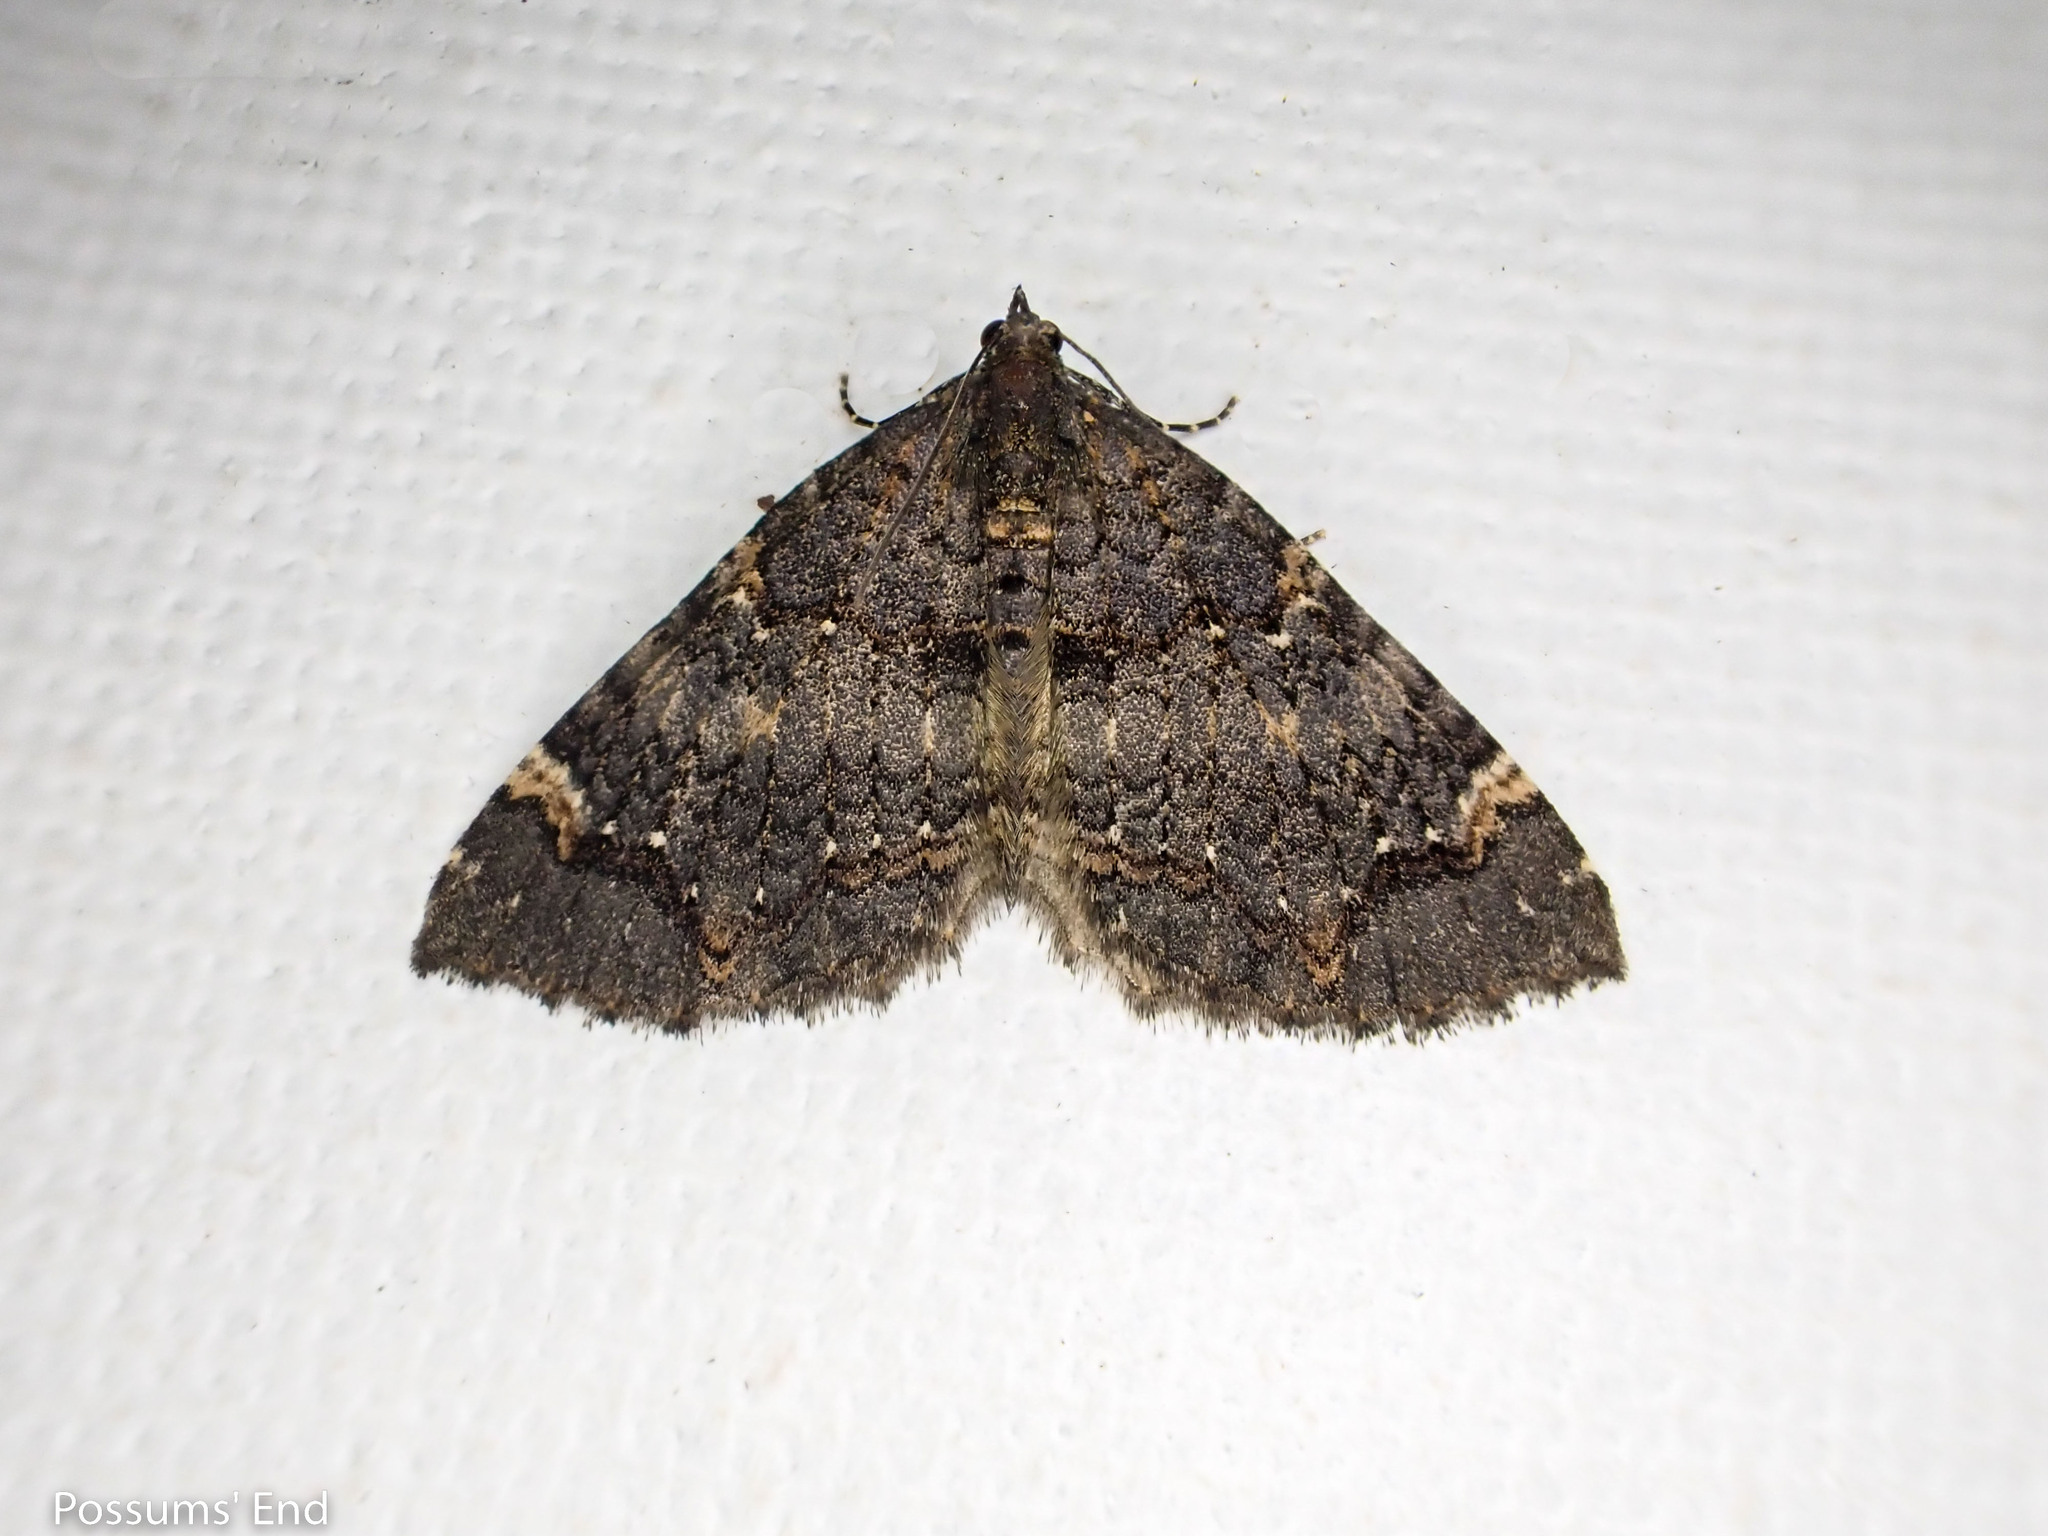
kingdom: Animalia
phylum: Arthropoda
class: Insecta
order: Lepidoptera
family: Geometridae
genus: Hydriomena
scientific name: Hydriomena arida
